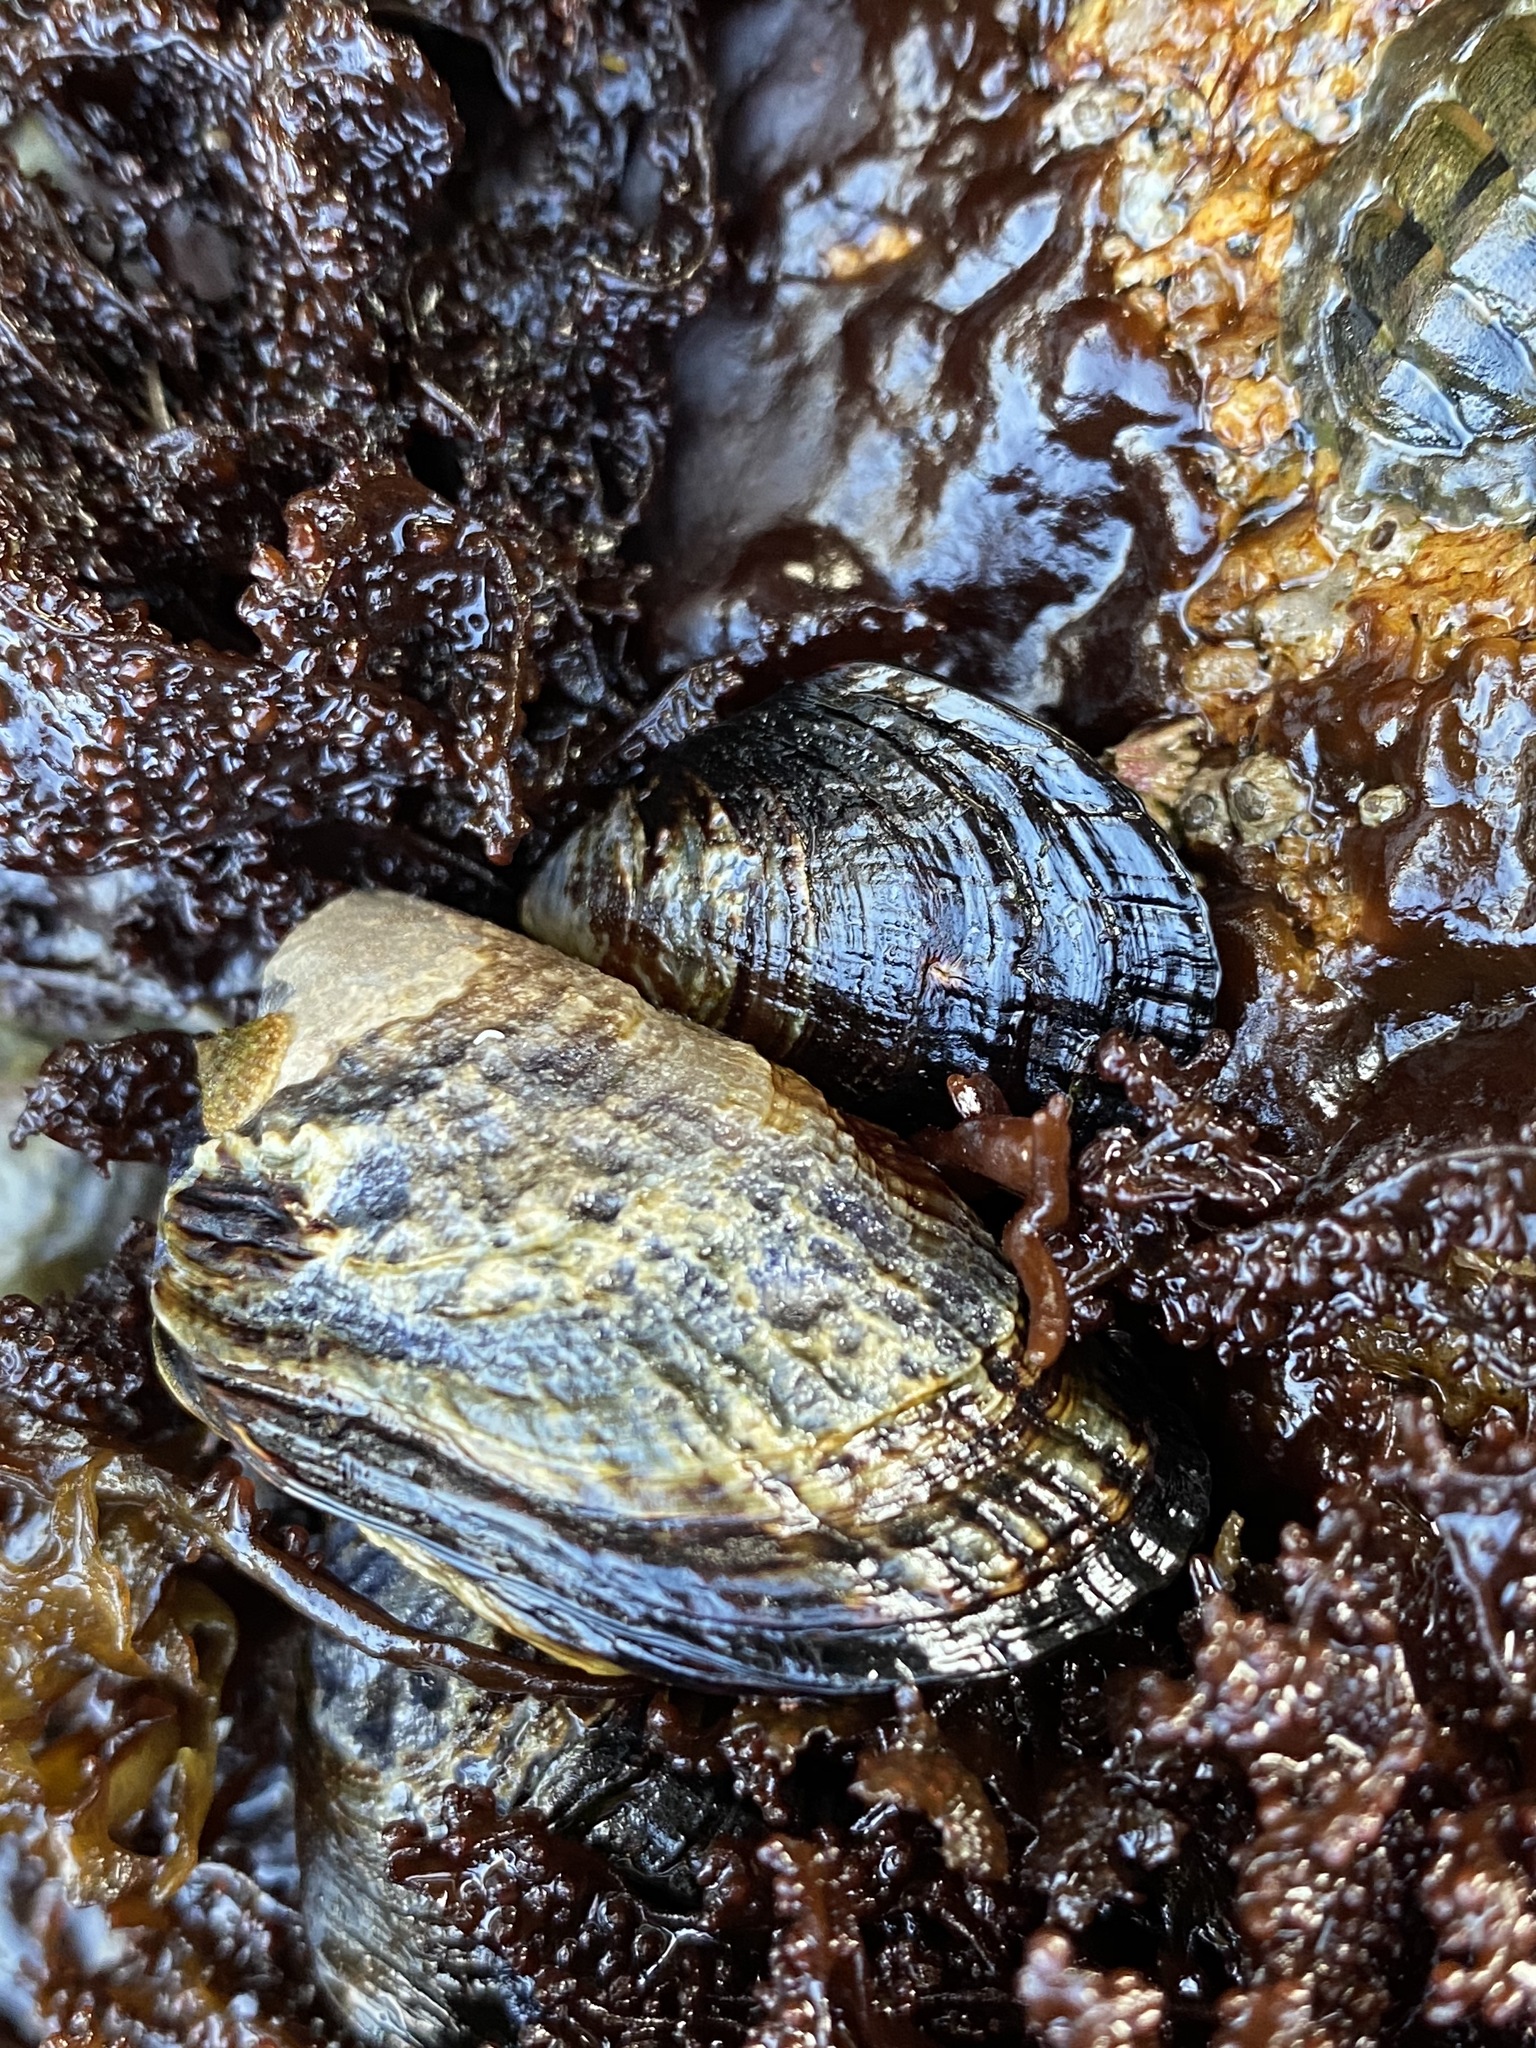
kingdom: Animalia
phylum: Mollusca
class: Bivalvia
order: Mytilida
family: Mytilidae
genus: Mytilus
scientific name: Mytilus californianus
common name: California mussel
